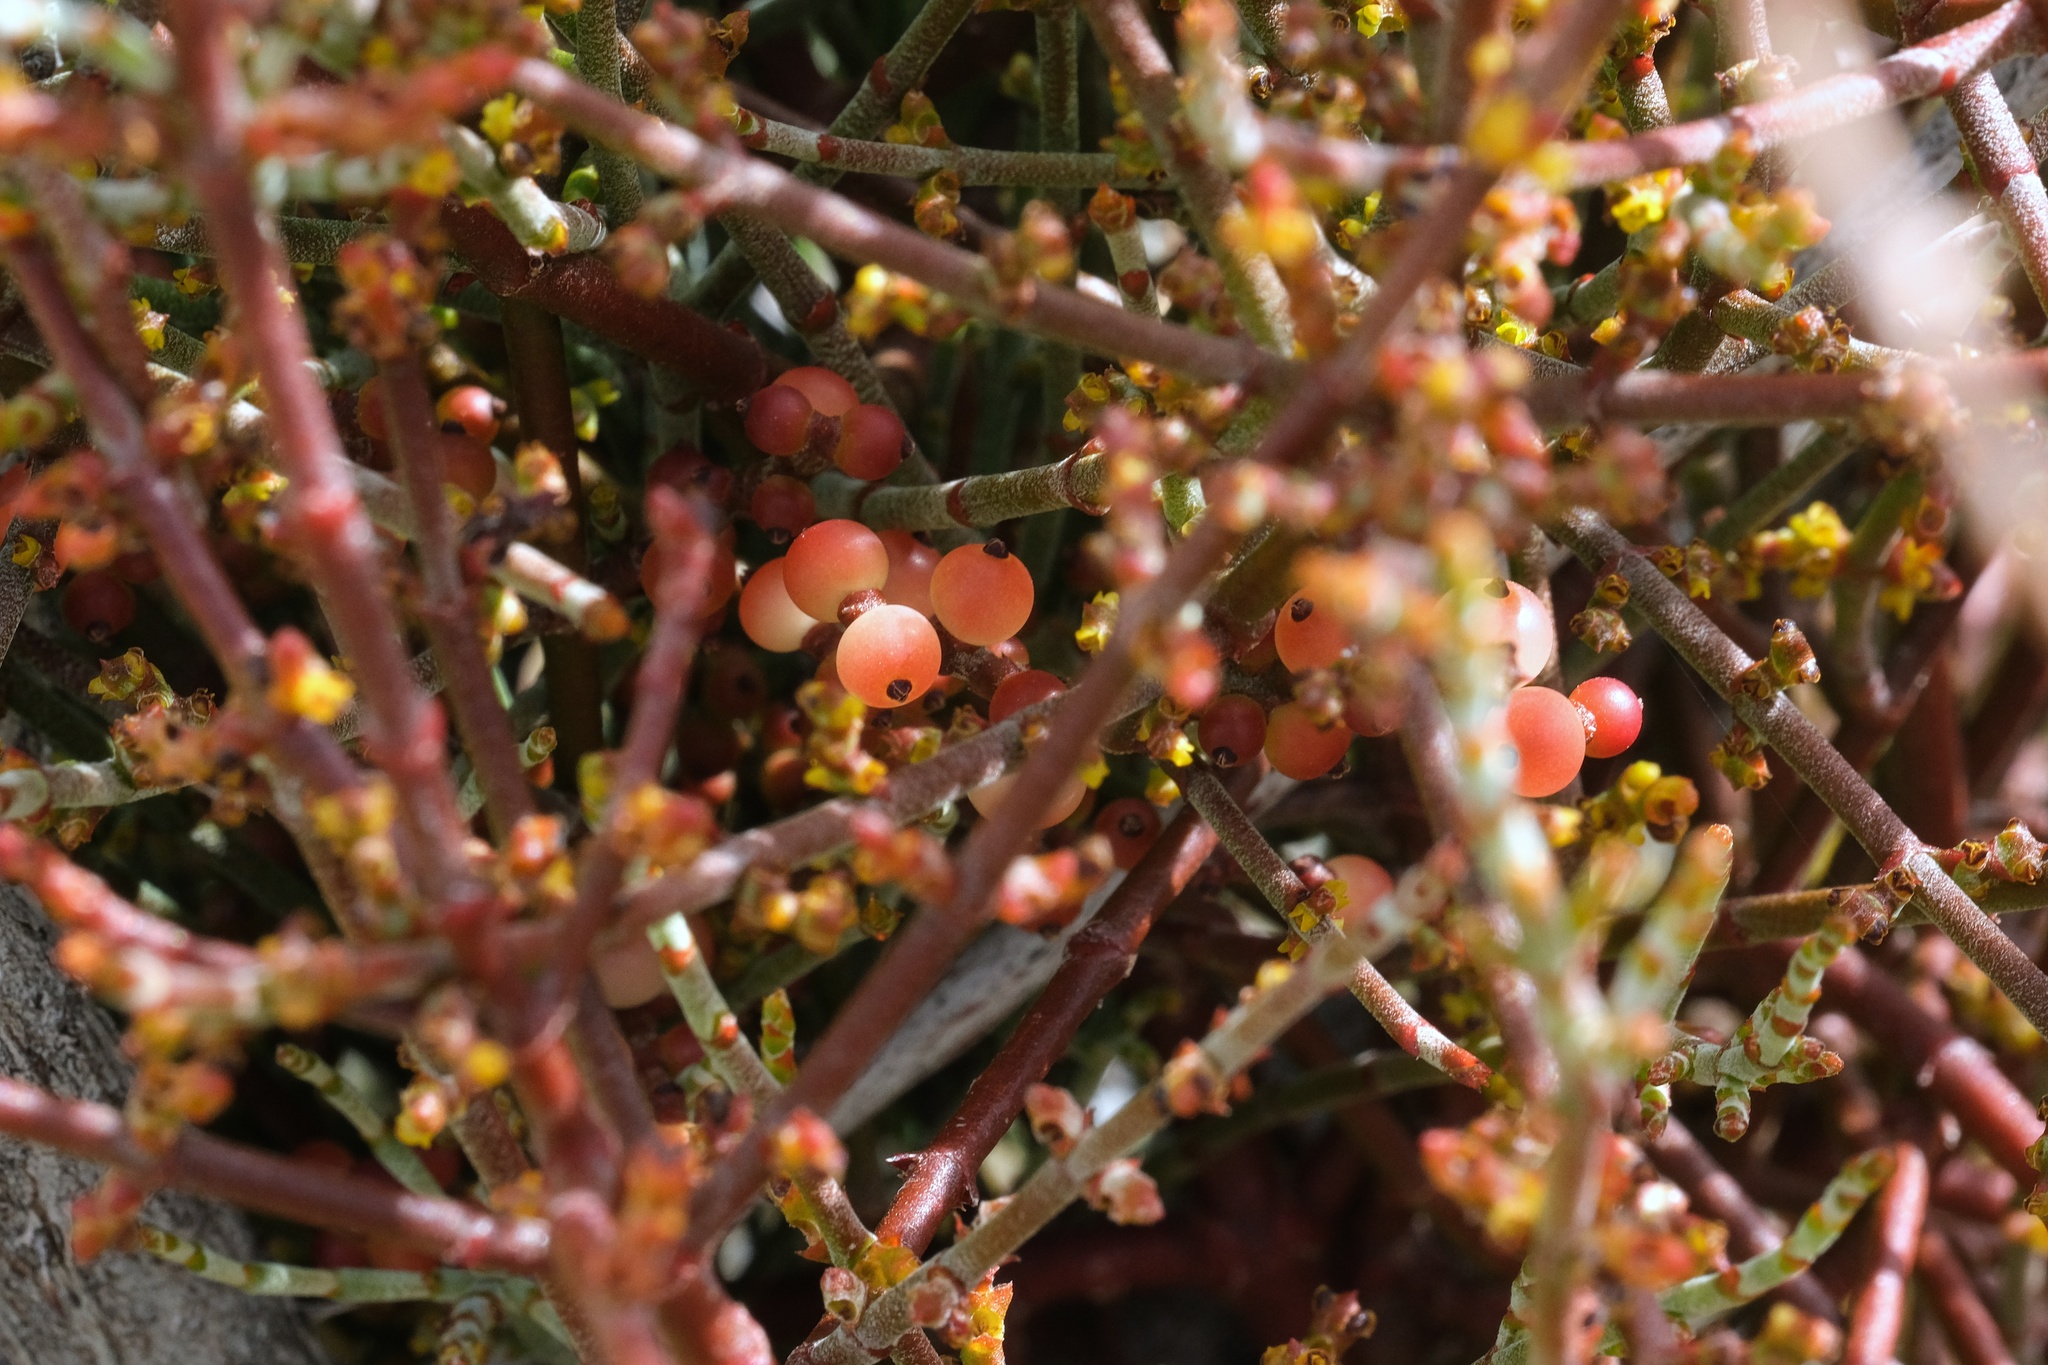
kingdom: Plantae
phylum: Tracheophyta
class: Magnoliopsida
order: Santalales
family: Viscaceae
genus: Phoradendron
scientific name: Phoradendron californicum
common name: Acacia mistletoe
